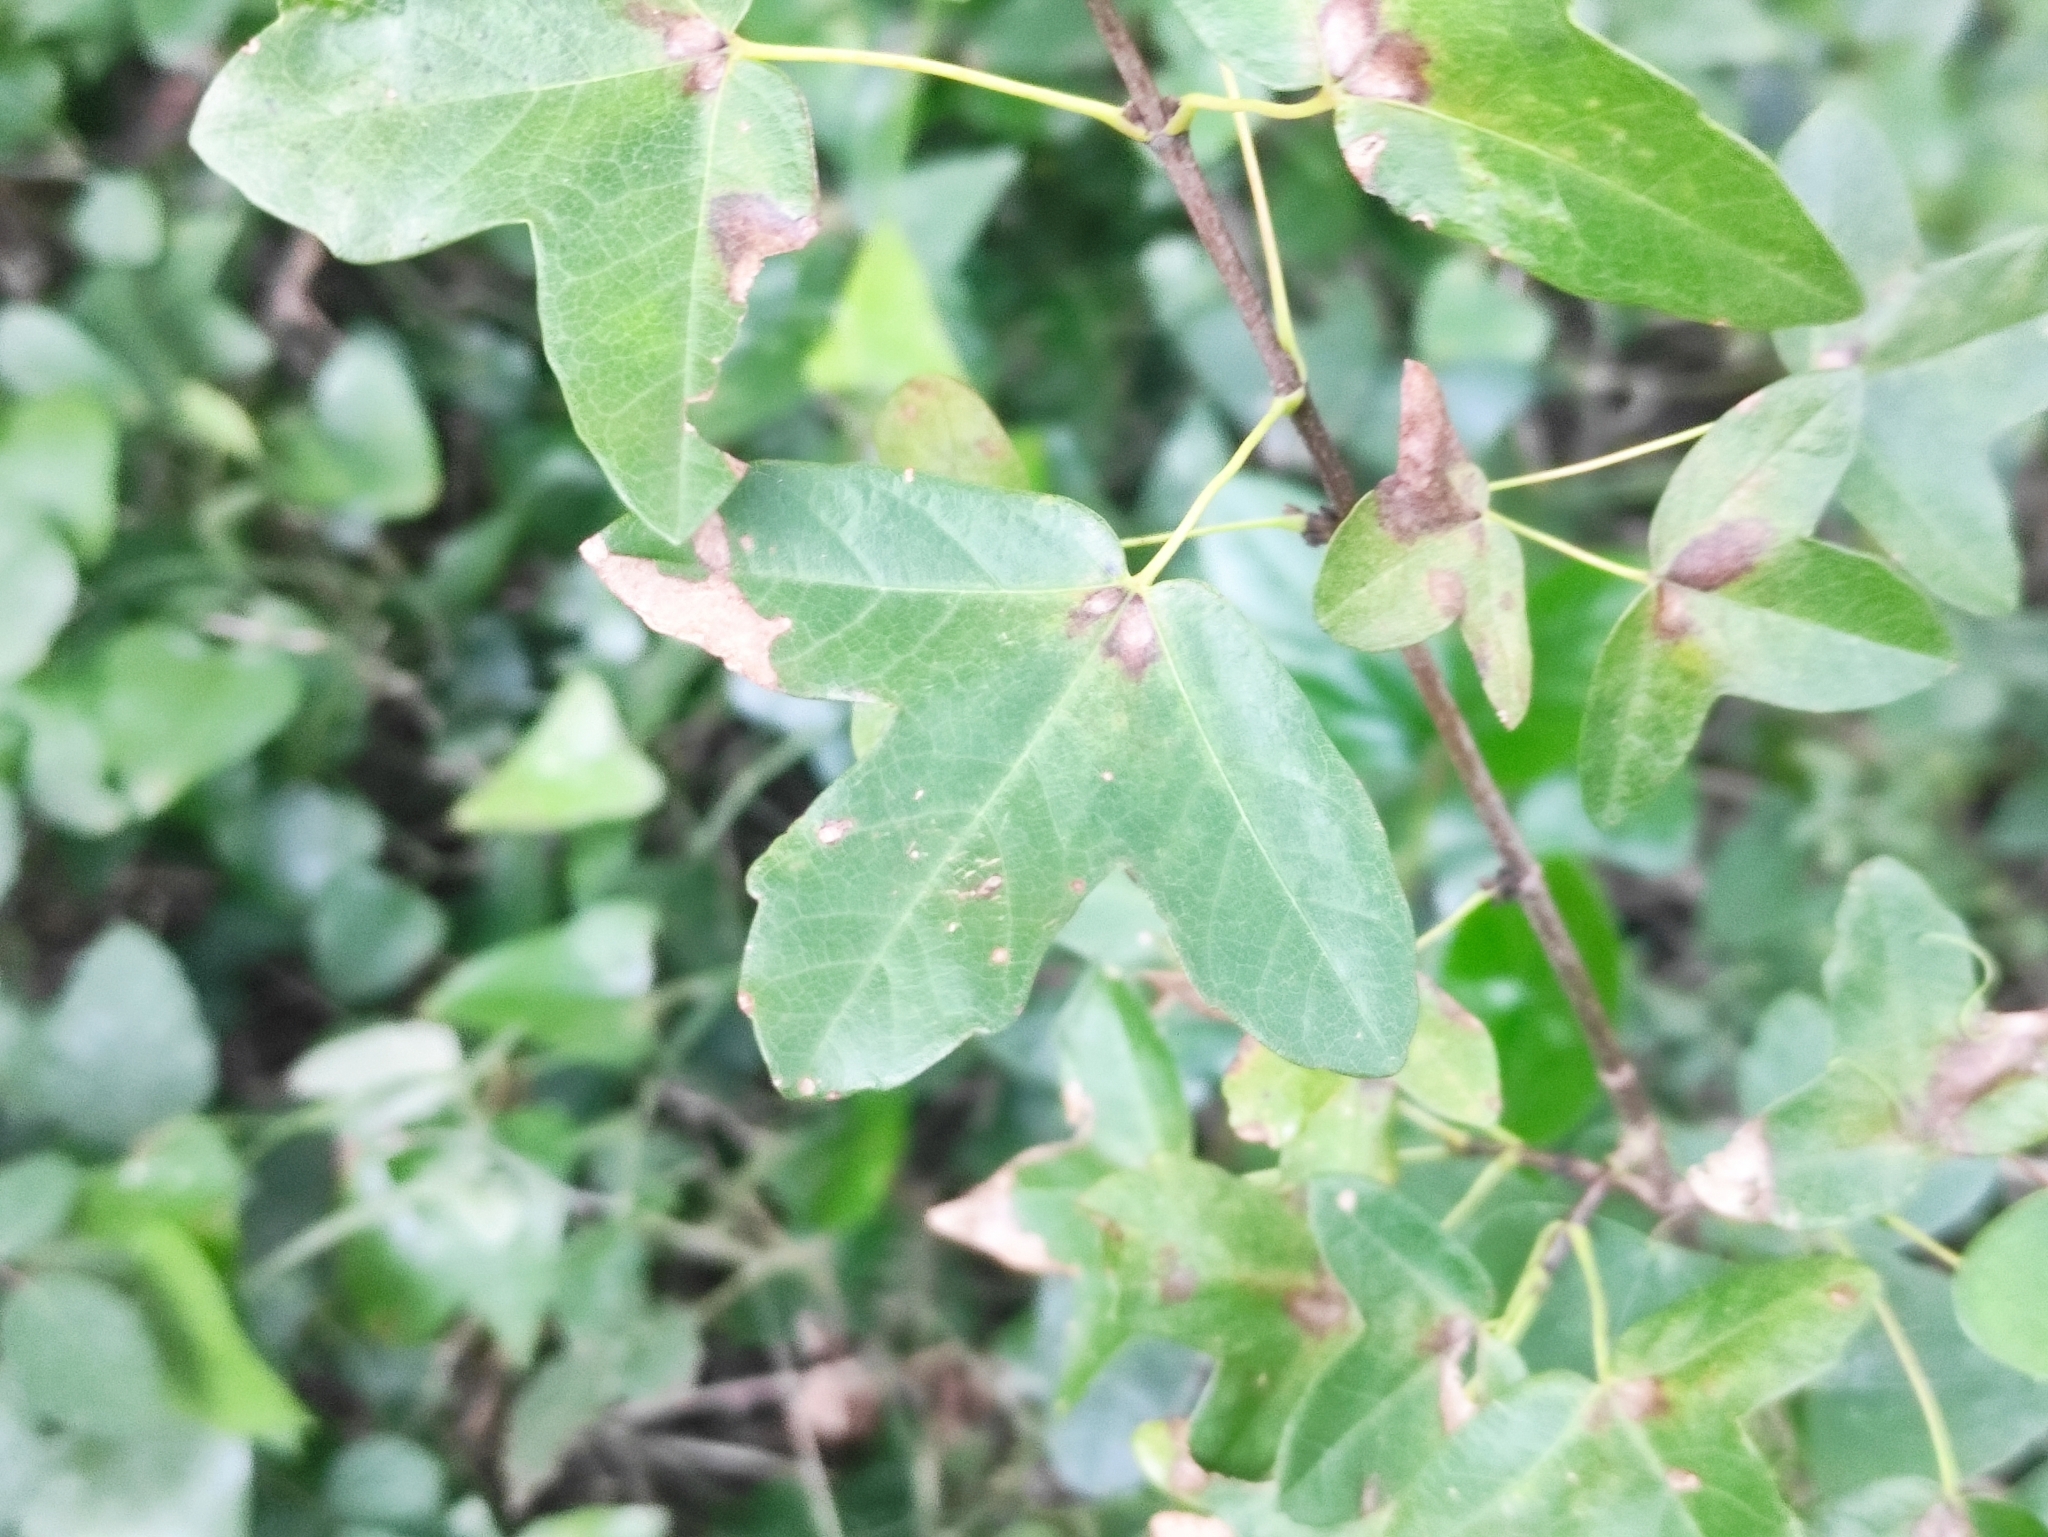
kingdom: Plantae
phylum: Tracheophyta
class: Magnoliopsida
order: Sapindales
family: Sapindaceae
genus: Acer
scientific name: Acer monspessulanum
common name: Montpellier maple
